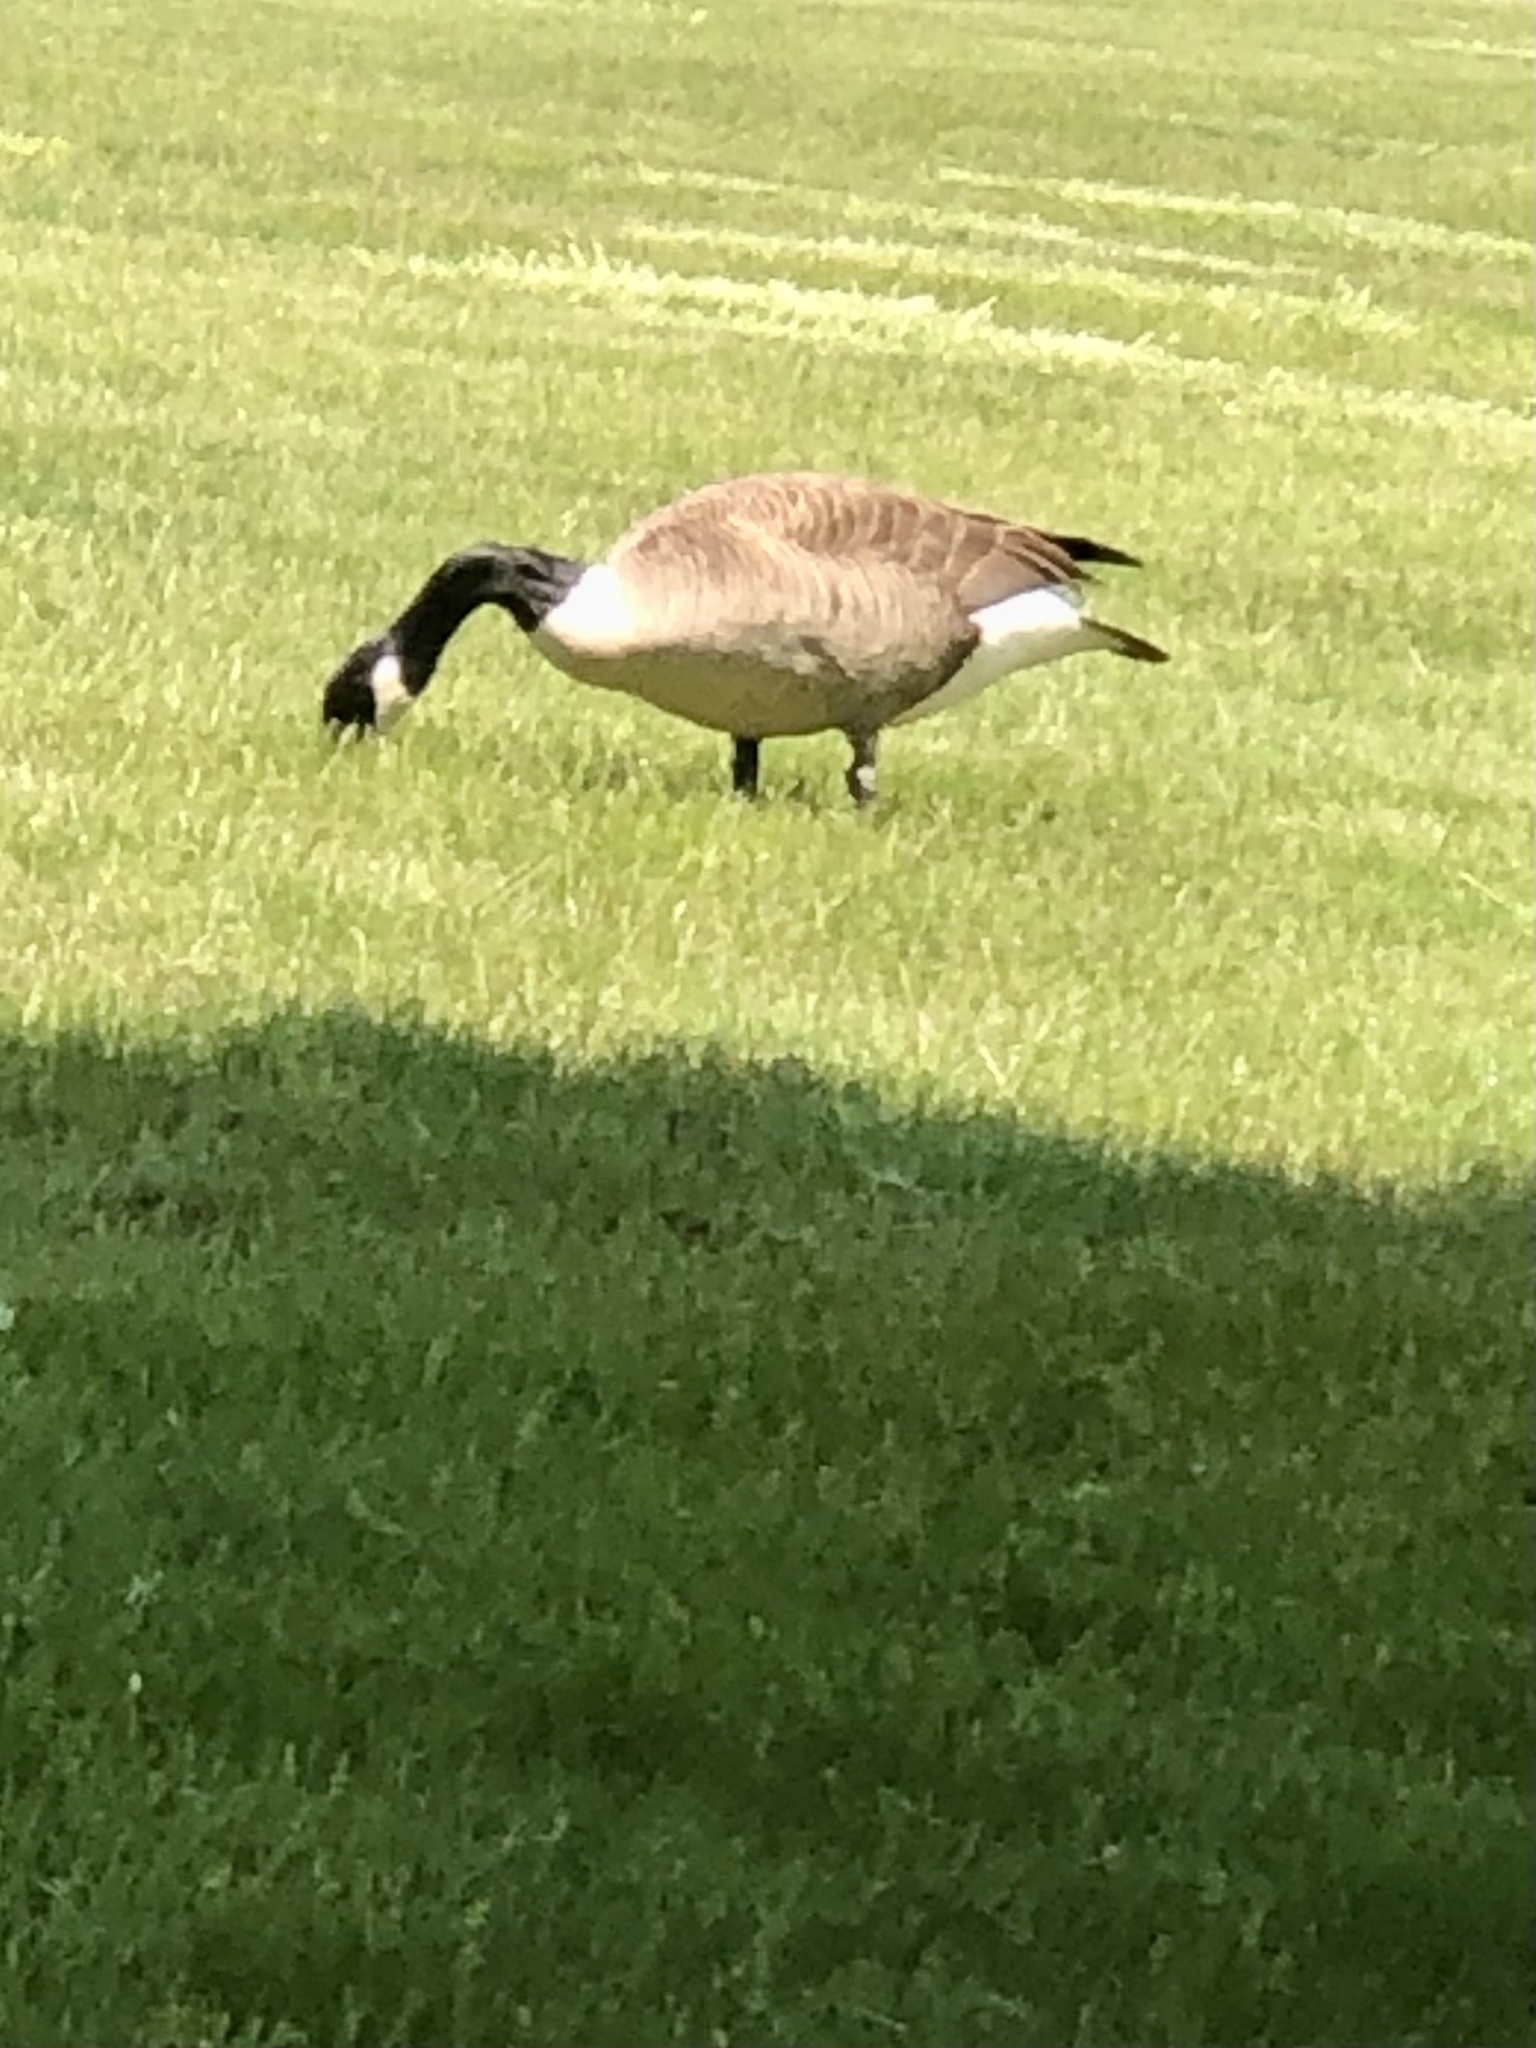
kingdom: Animalia
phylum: Chordata
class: Aves
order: Anseriformes
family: Anatidae
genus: Branta
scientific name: Branta canadensis
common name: Canada goose
